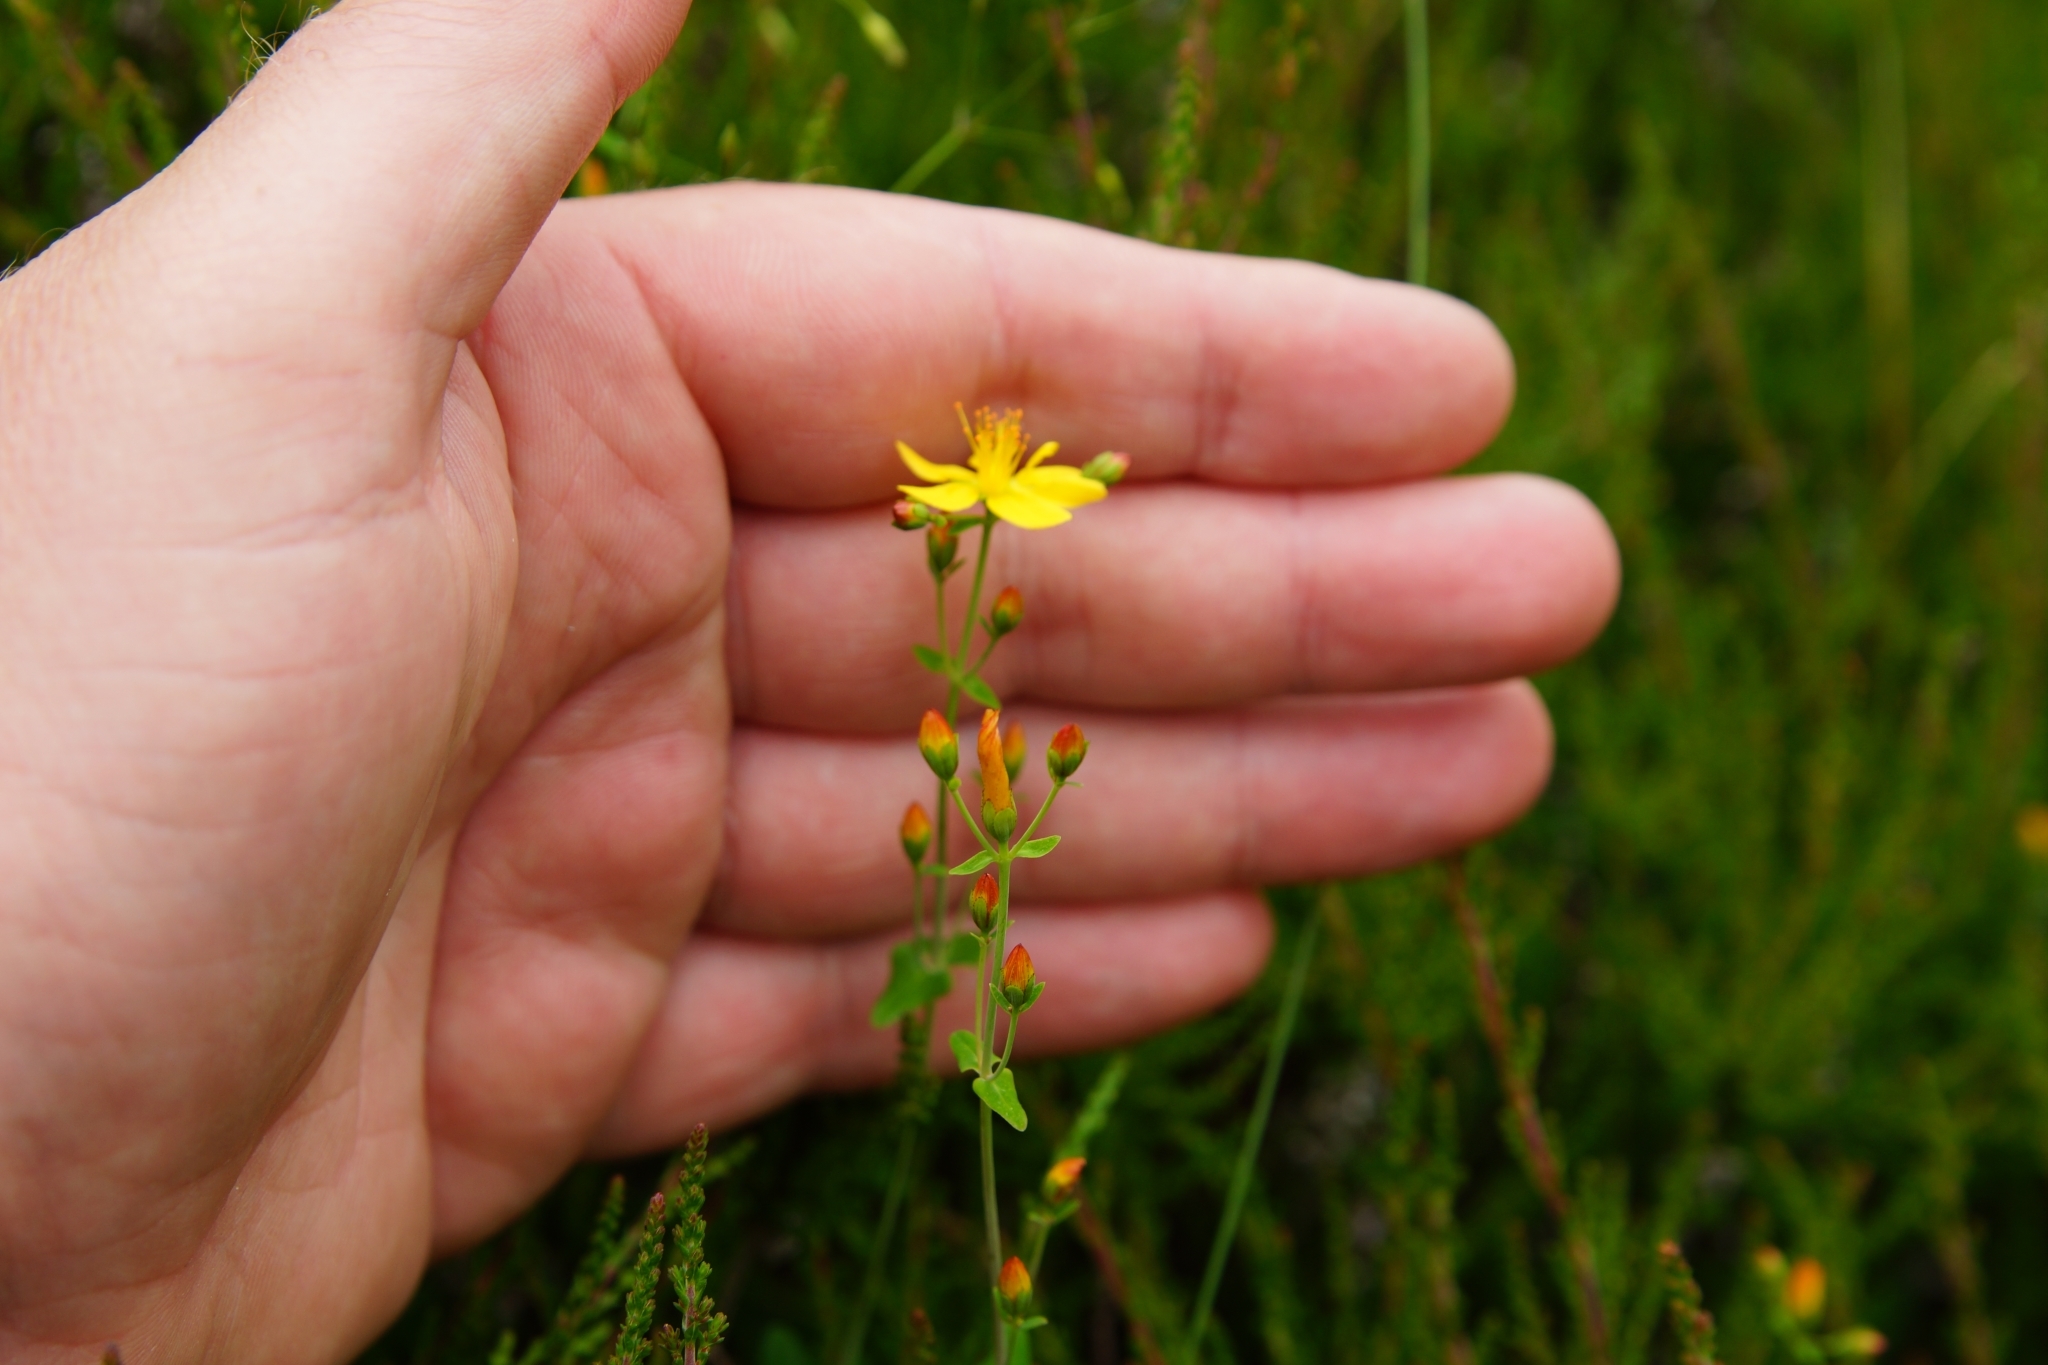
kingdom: Plantae
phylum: Tracheophyta
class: Magnoliopsida
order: Malpighiales
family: Hypericaceae
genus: Hypericum
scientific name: Hypericum pulchrum
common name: Slender st. john's-wort
